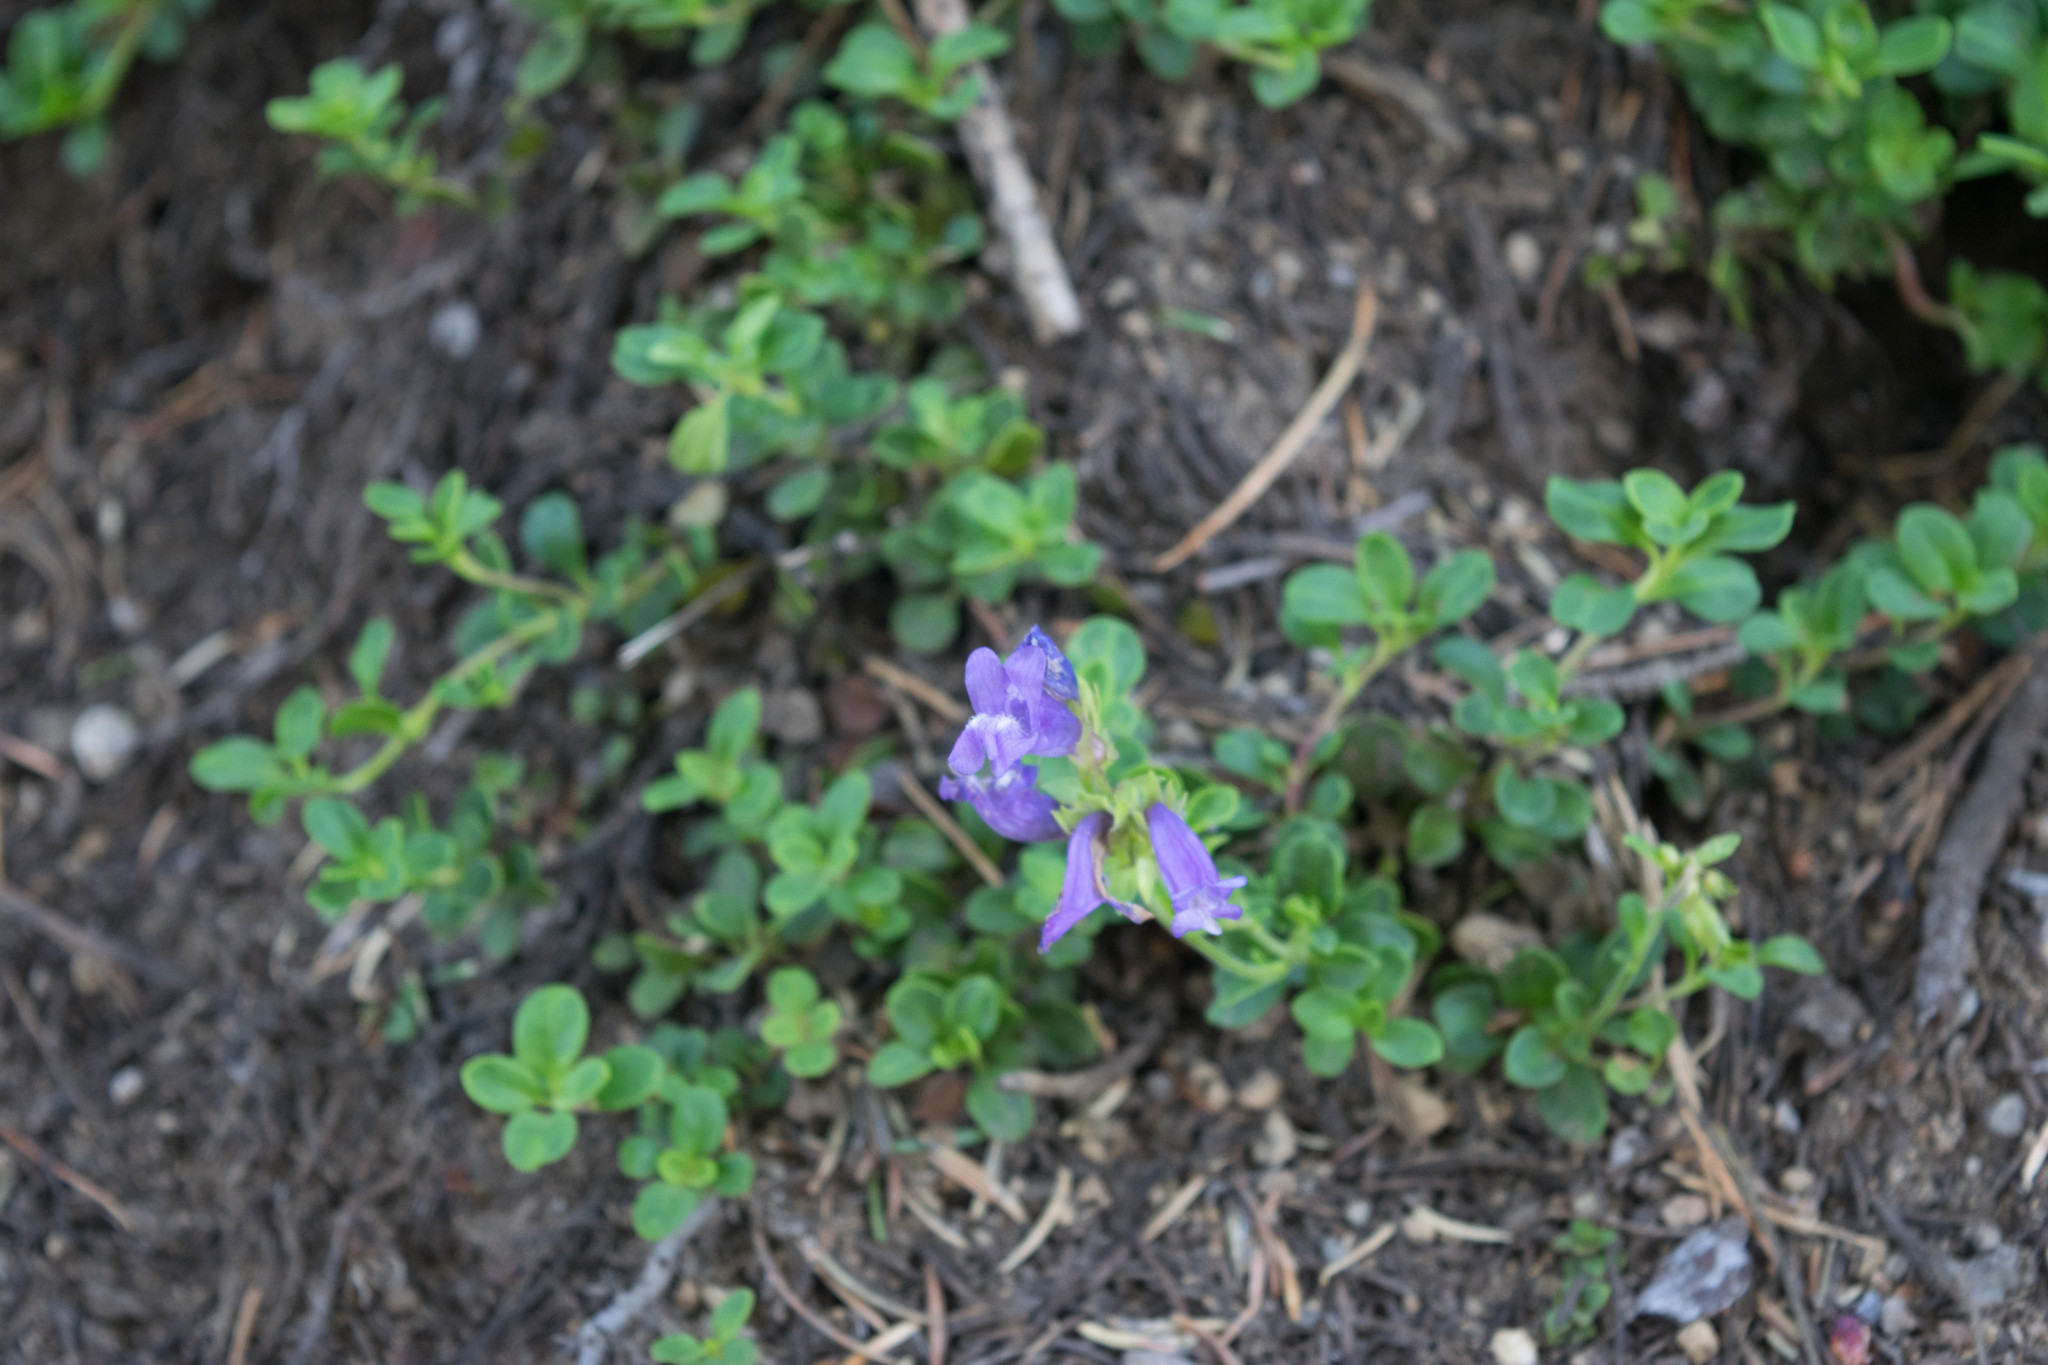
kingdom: Plantae
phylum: Tracheophyta
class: Magnoliopsida
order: Lamiales
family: Plantaginaceae
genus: Penstemon
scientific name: Penstemon davidsonii
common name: Davidson's penstemon
